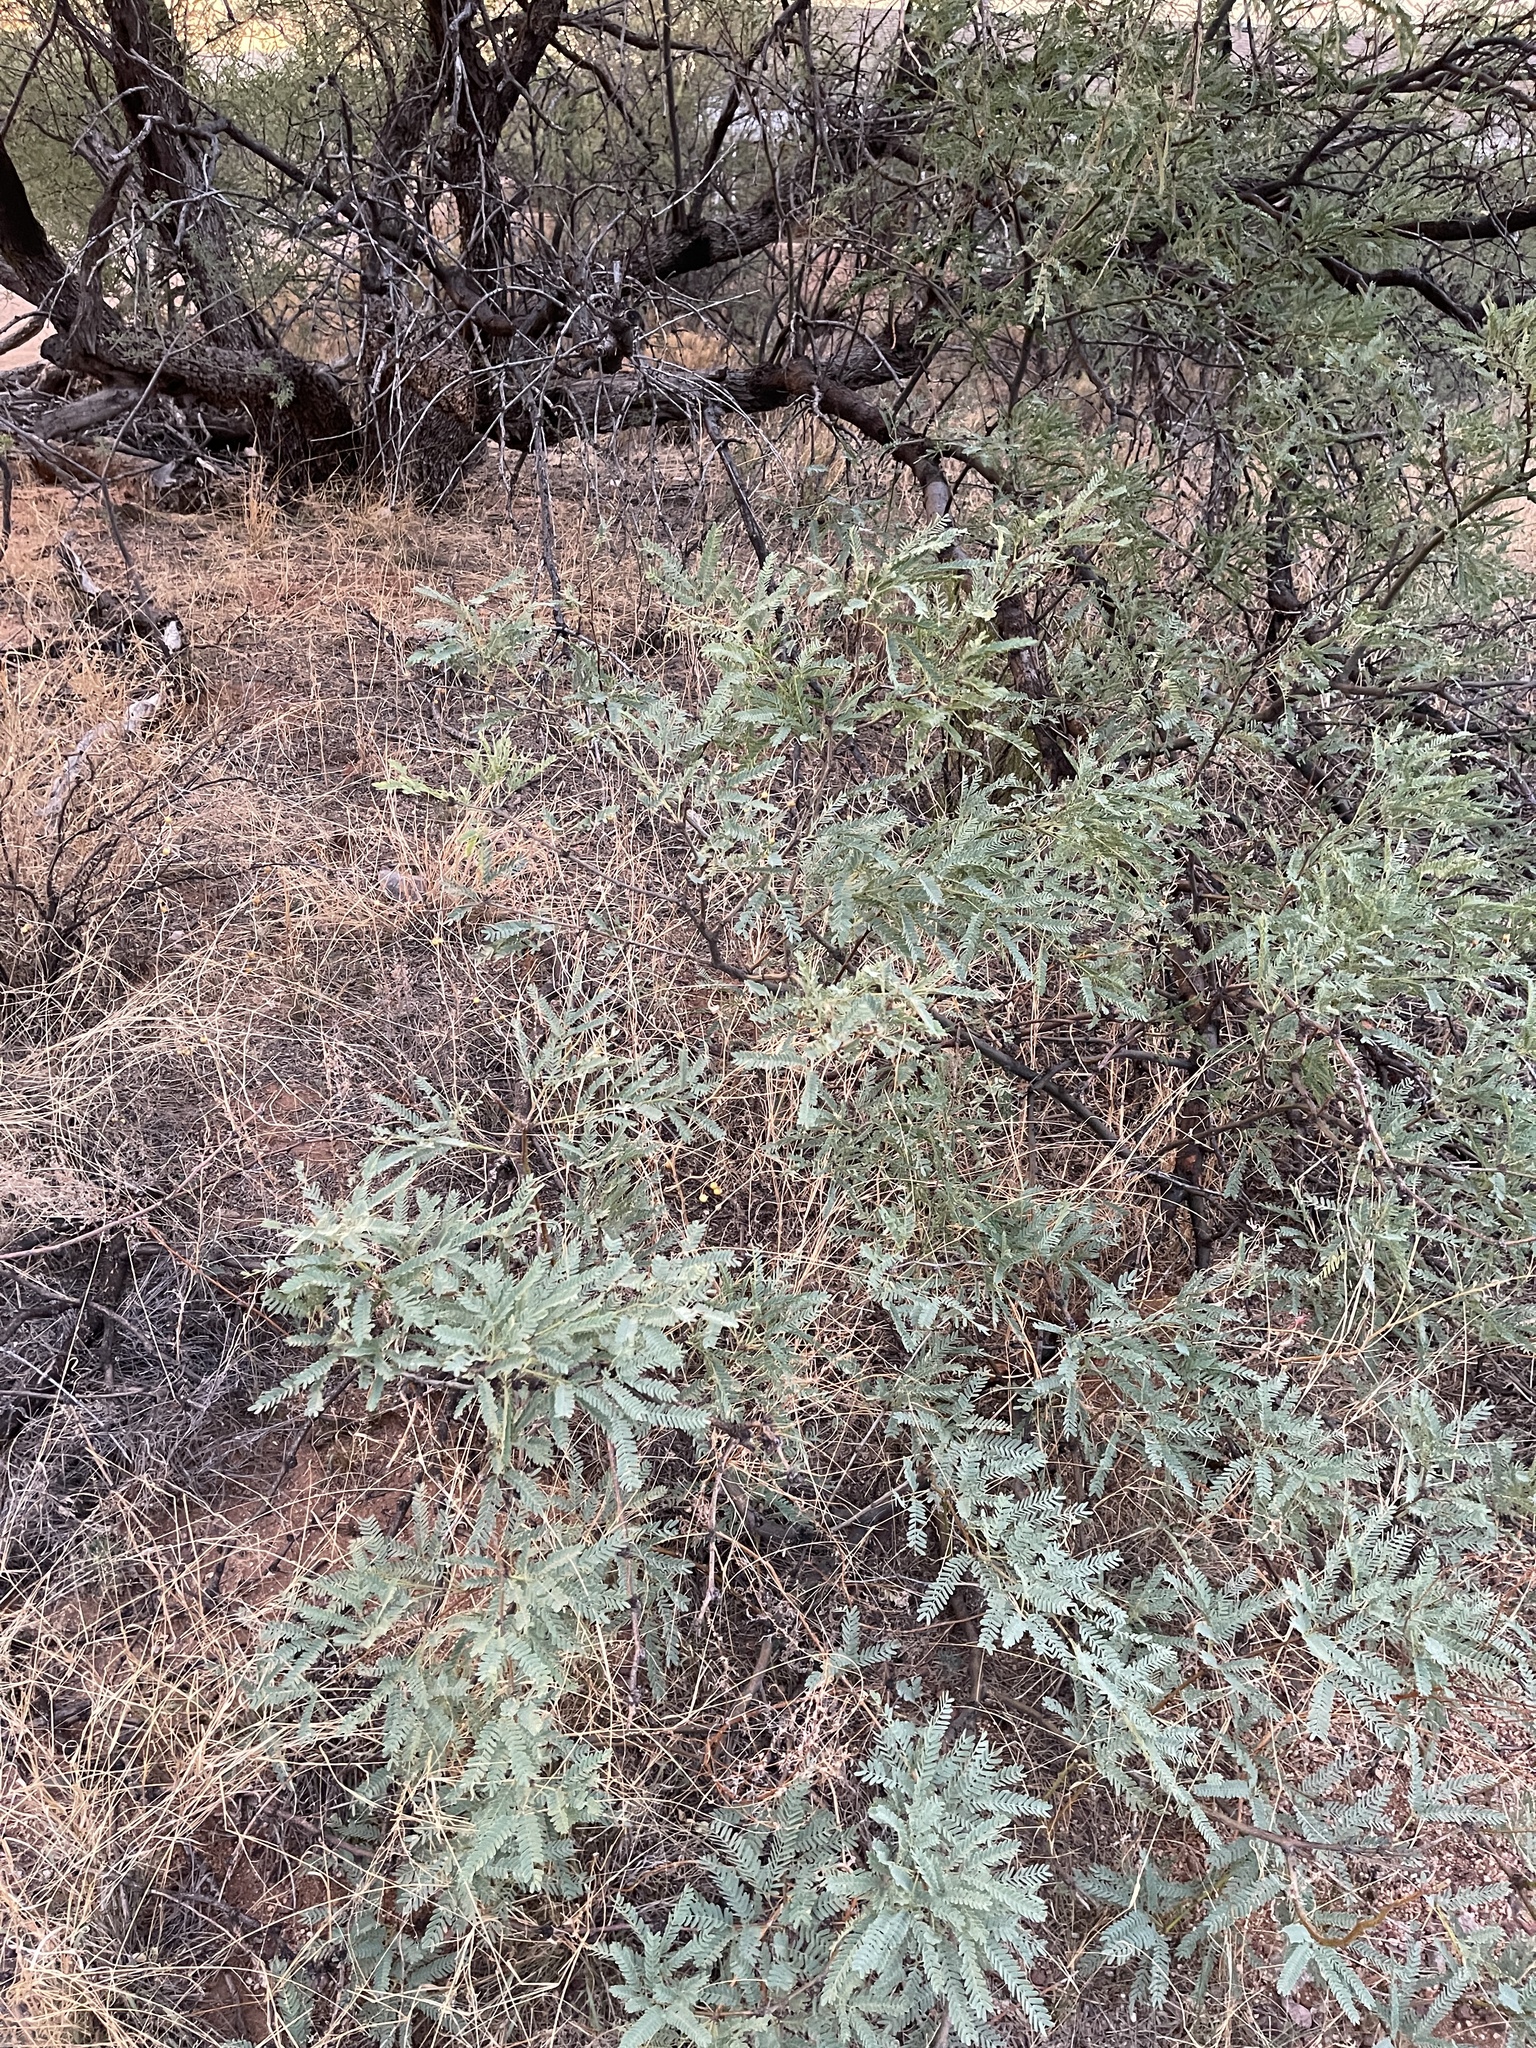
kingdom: Plantae
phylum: Tracheophyta
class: Magnoliopsida
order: Fabales
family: Fabaceae
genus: Prosopis
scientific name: Prosopis velutina
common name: Velvet mesquite
